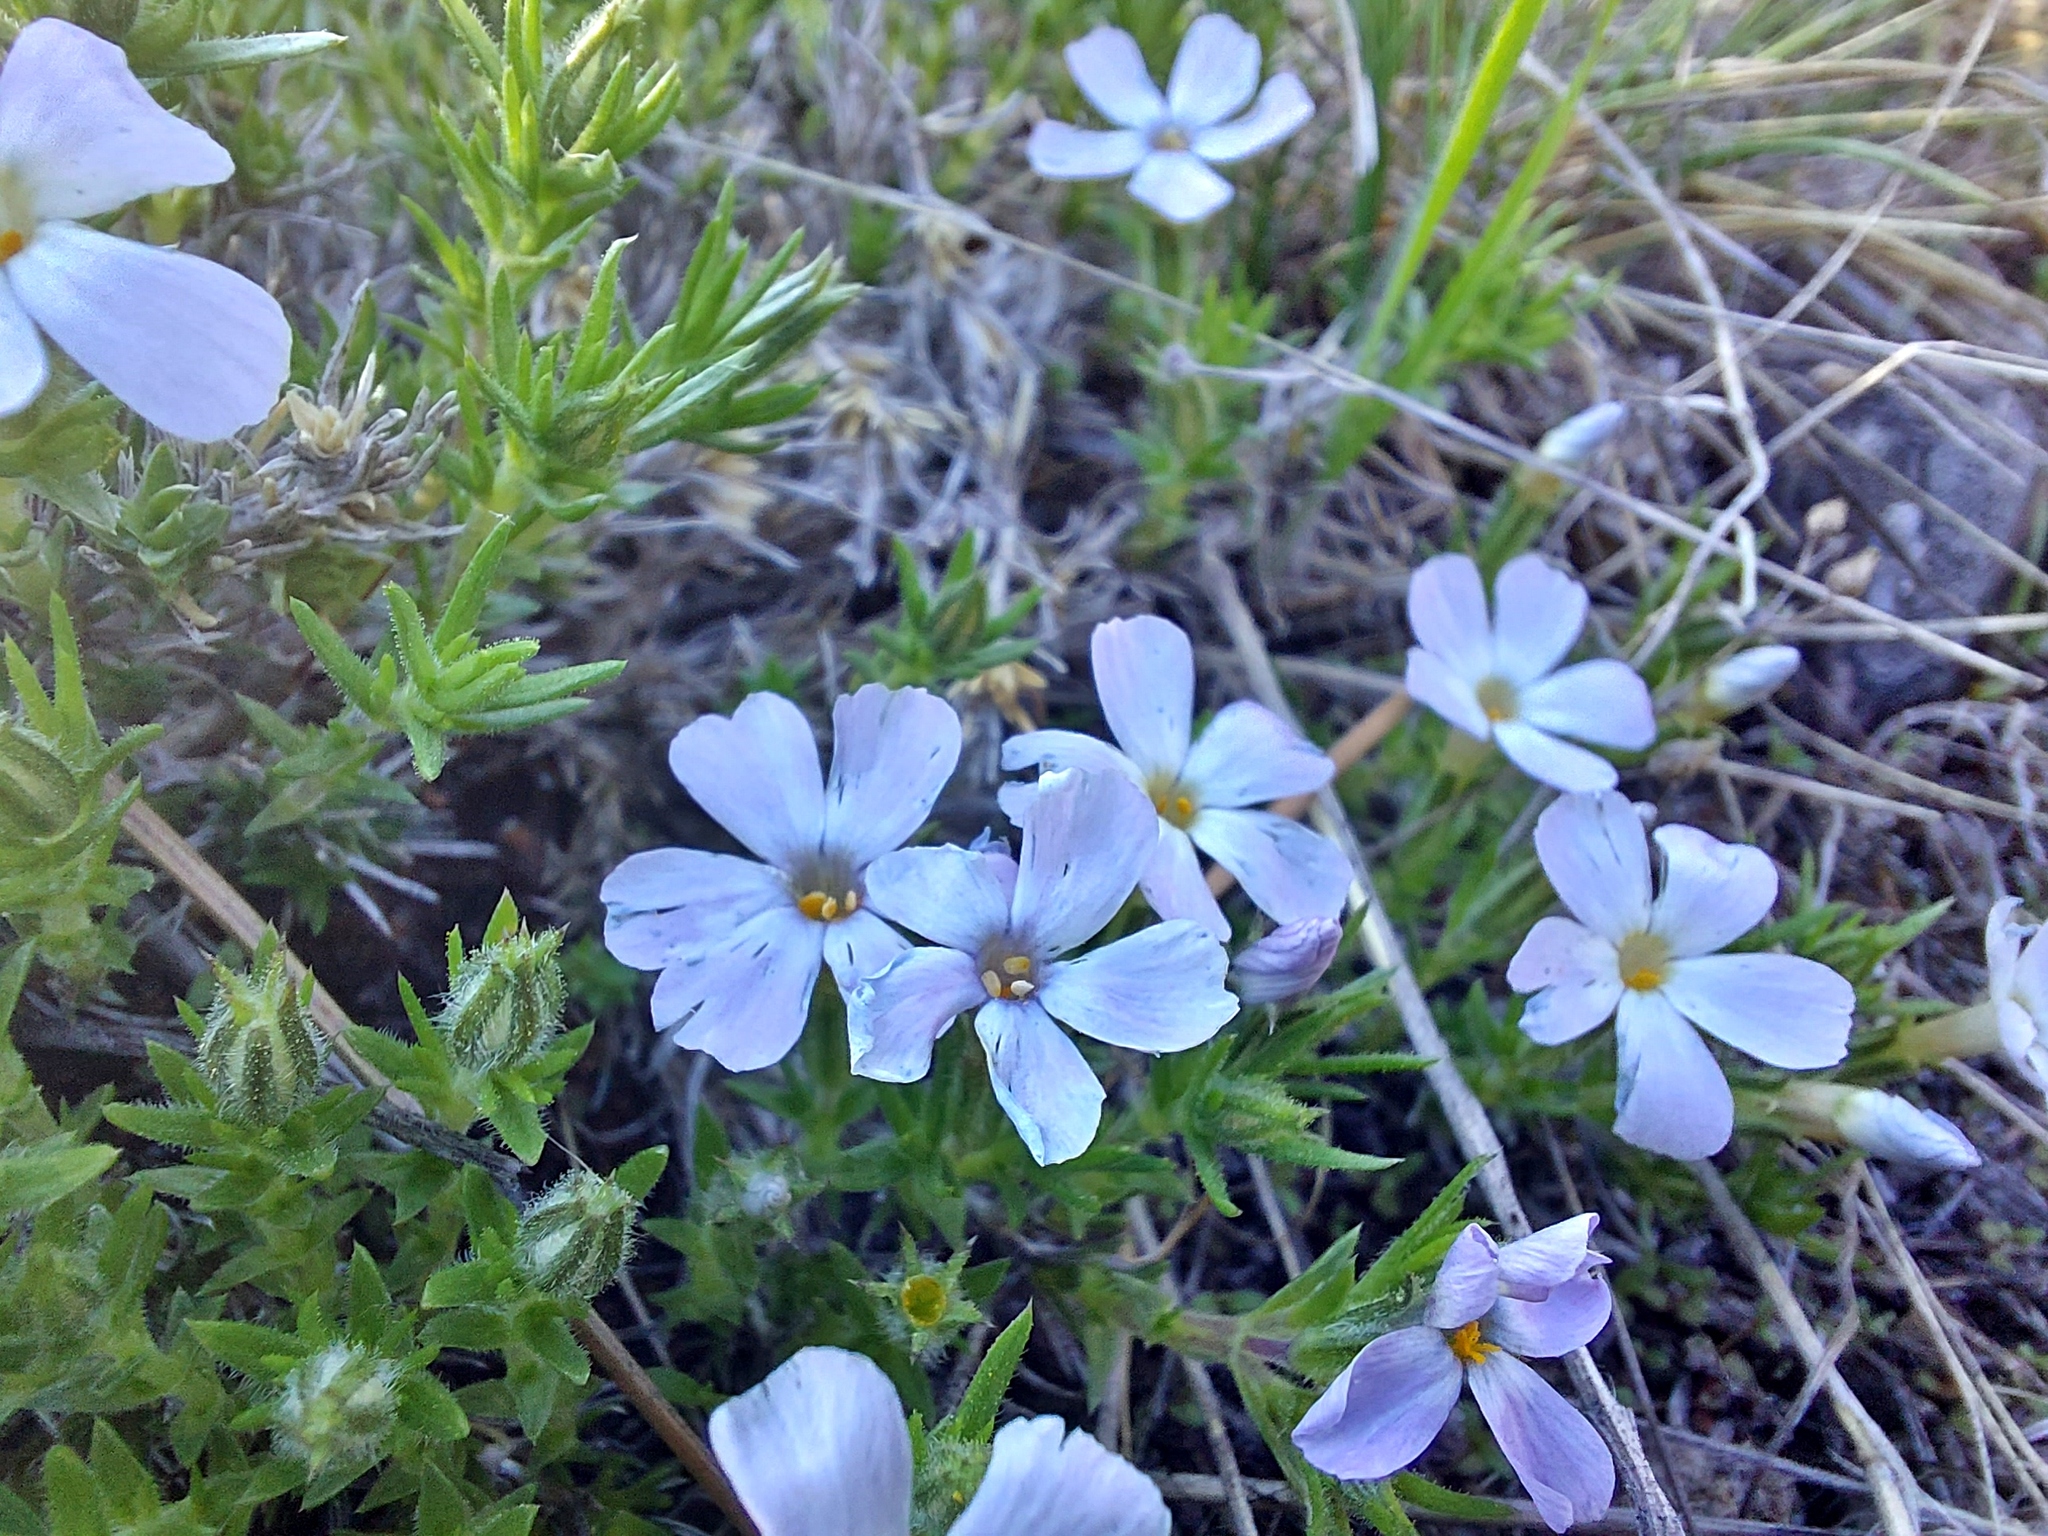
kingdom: Plantae
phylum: Tracheophyta
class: Magnoliopsida
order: Ericales
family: Polemoniaceae
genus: Phlox
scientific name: Phlox caespitosa
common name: Cushion phlox
